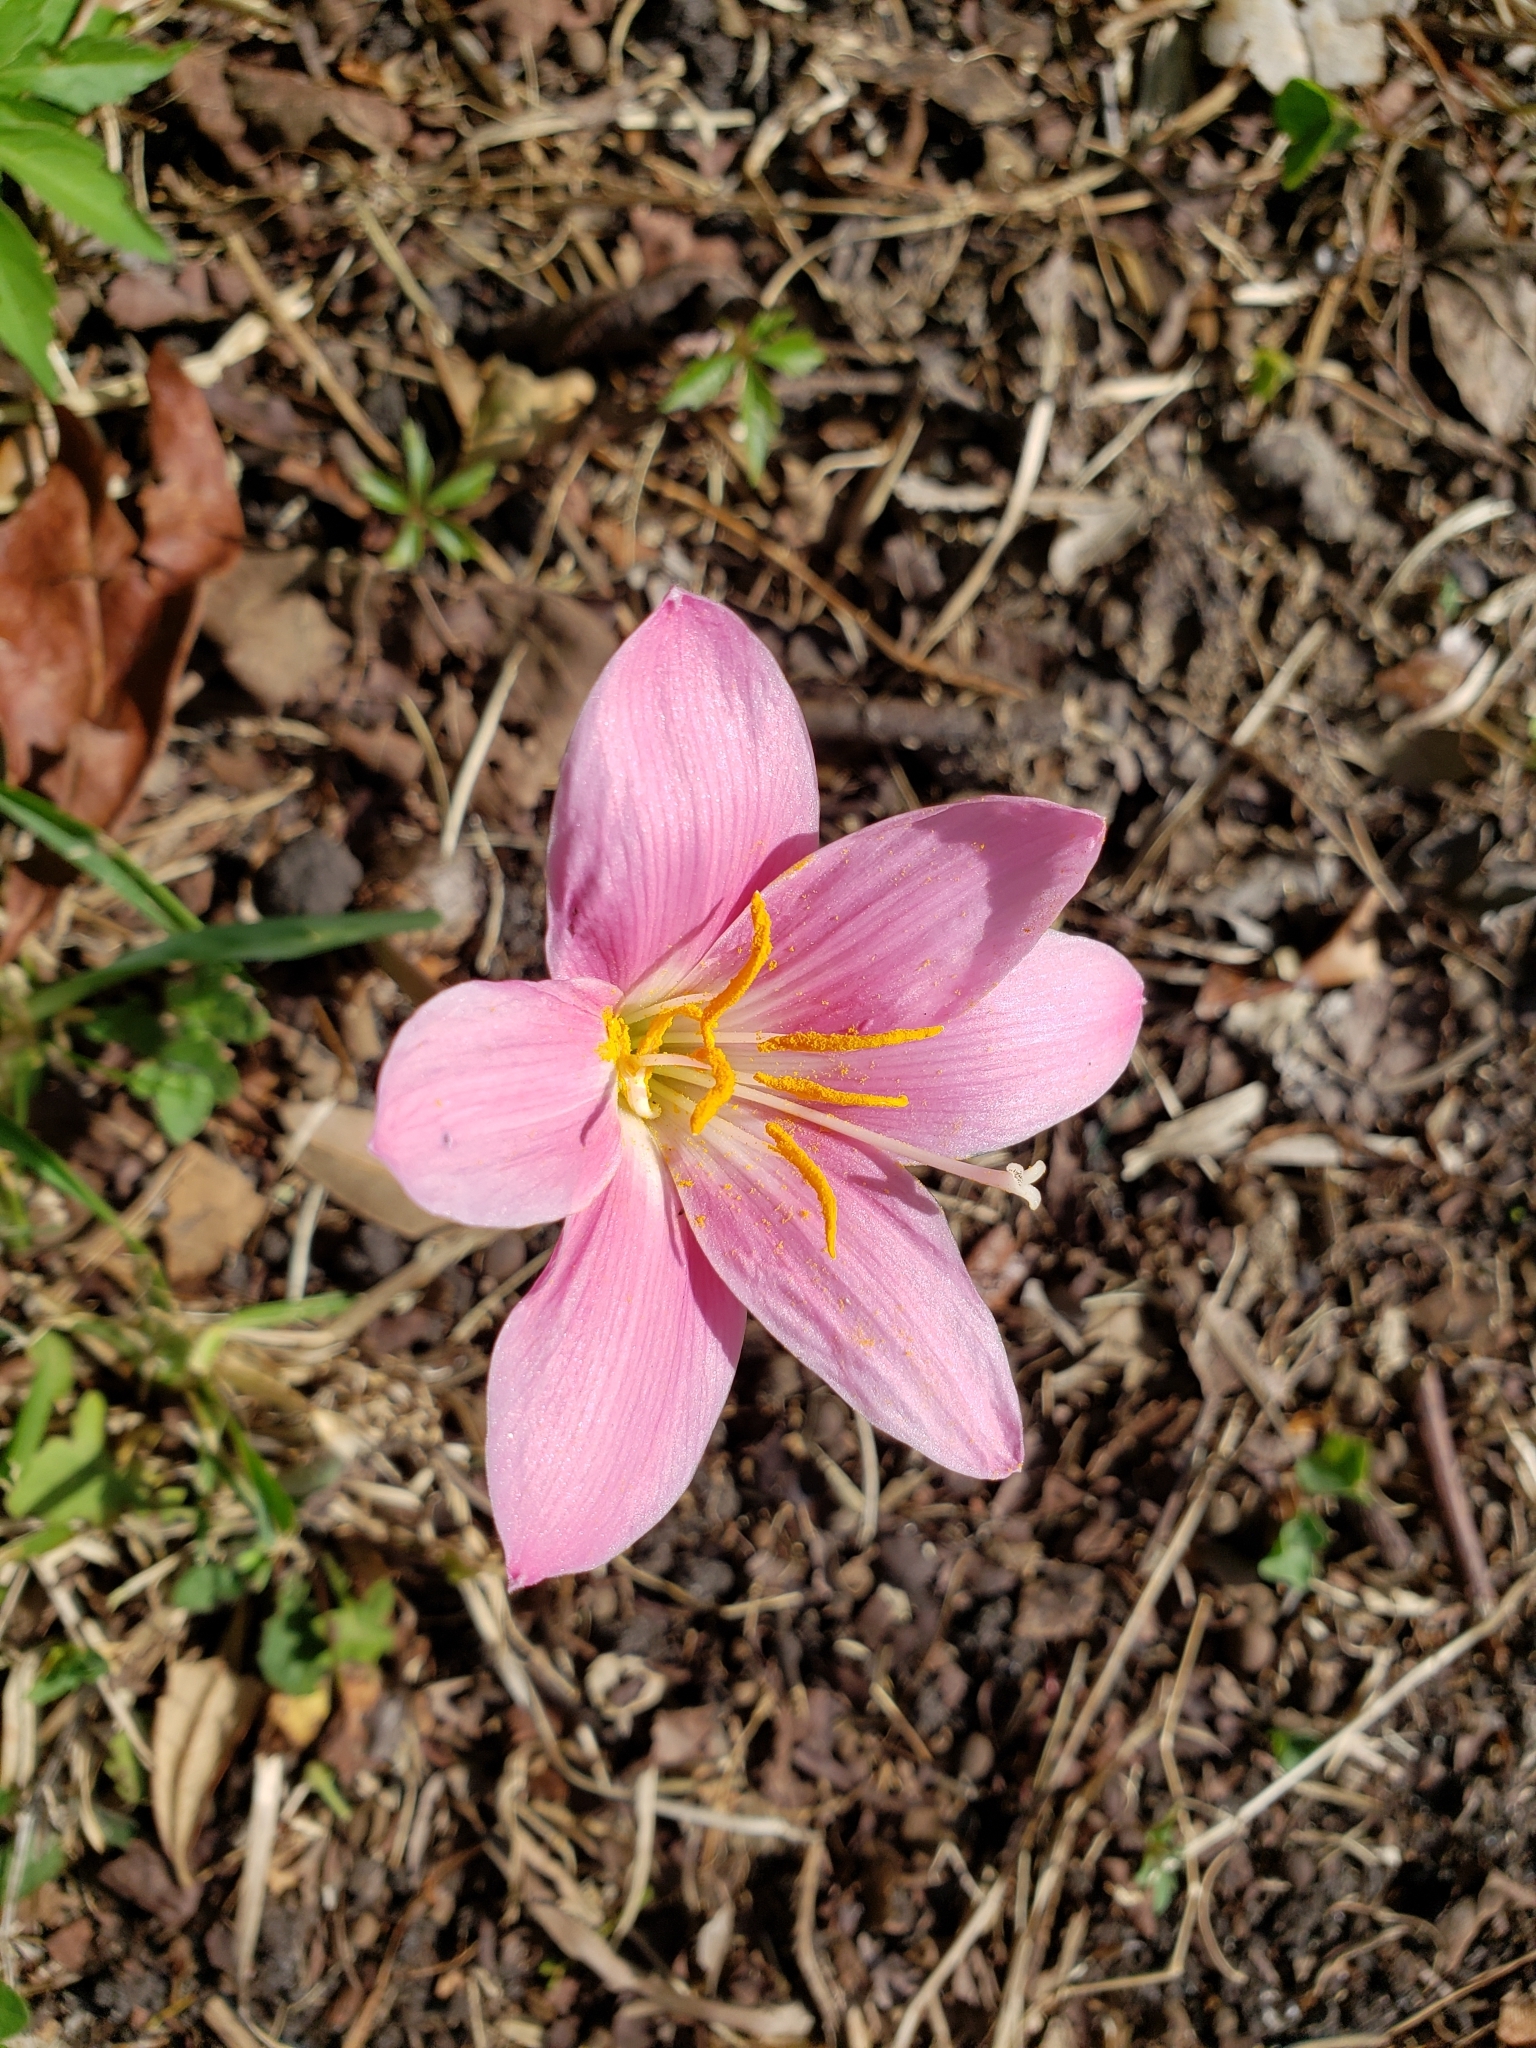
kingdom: Plantae
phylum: Tracheophyta
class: Liliopsida
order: Asparagales
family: Amaryllidaceae
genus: Zephyranthes
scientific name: Zephyranthes carinata
